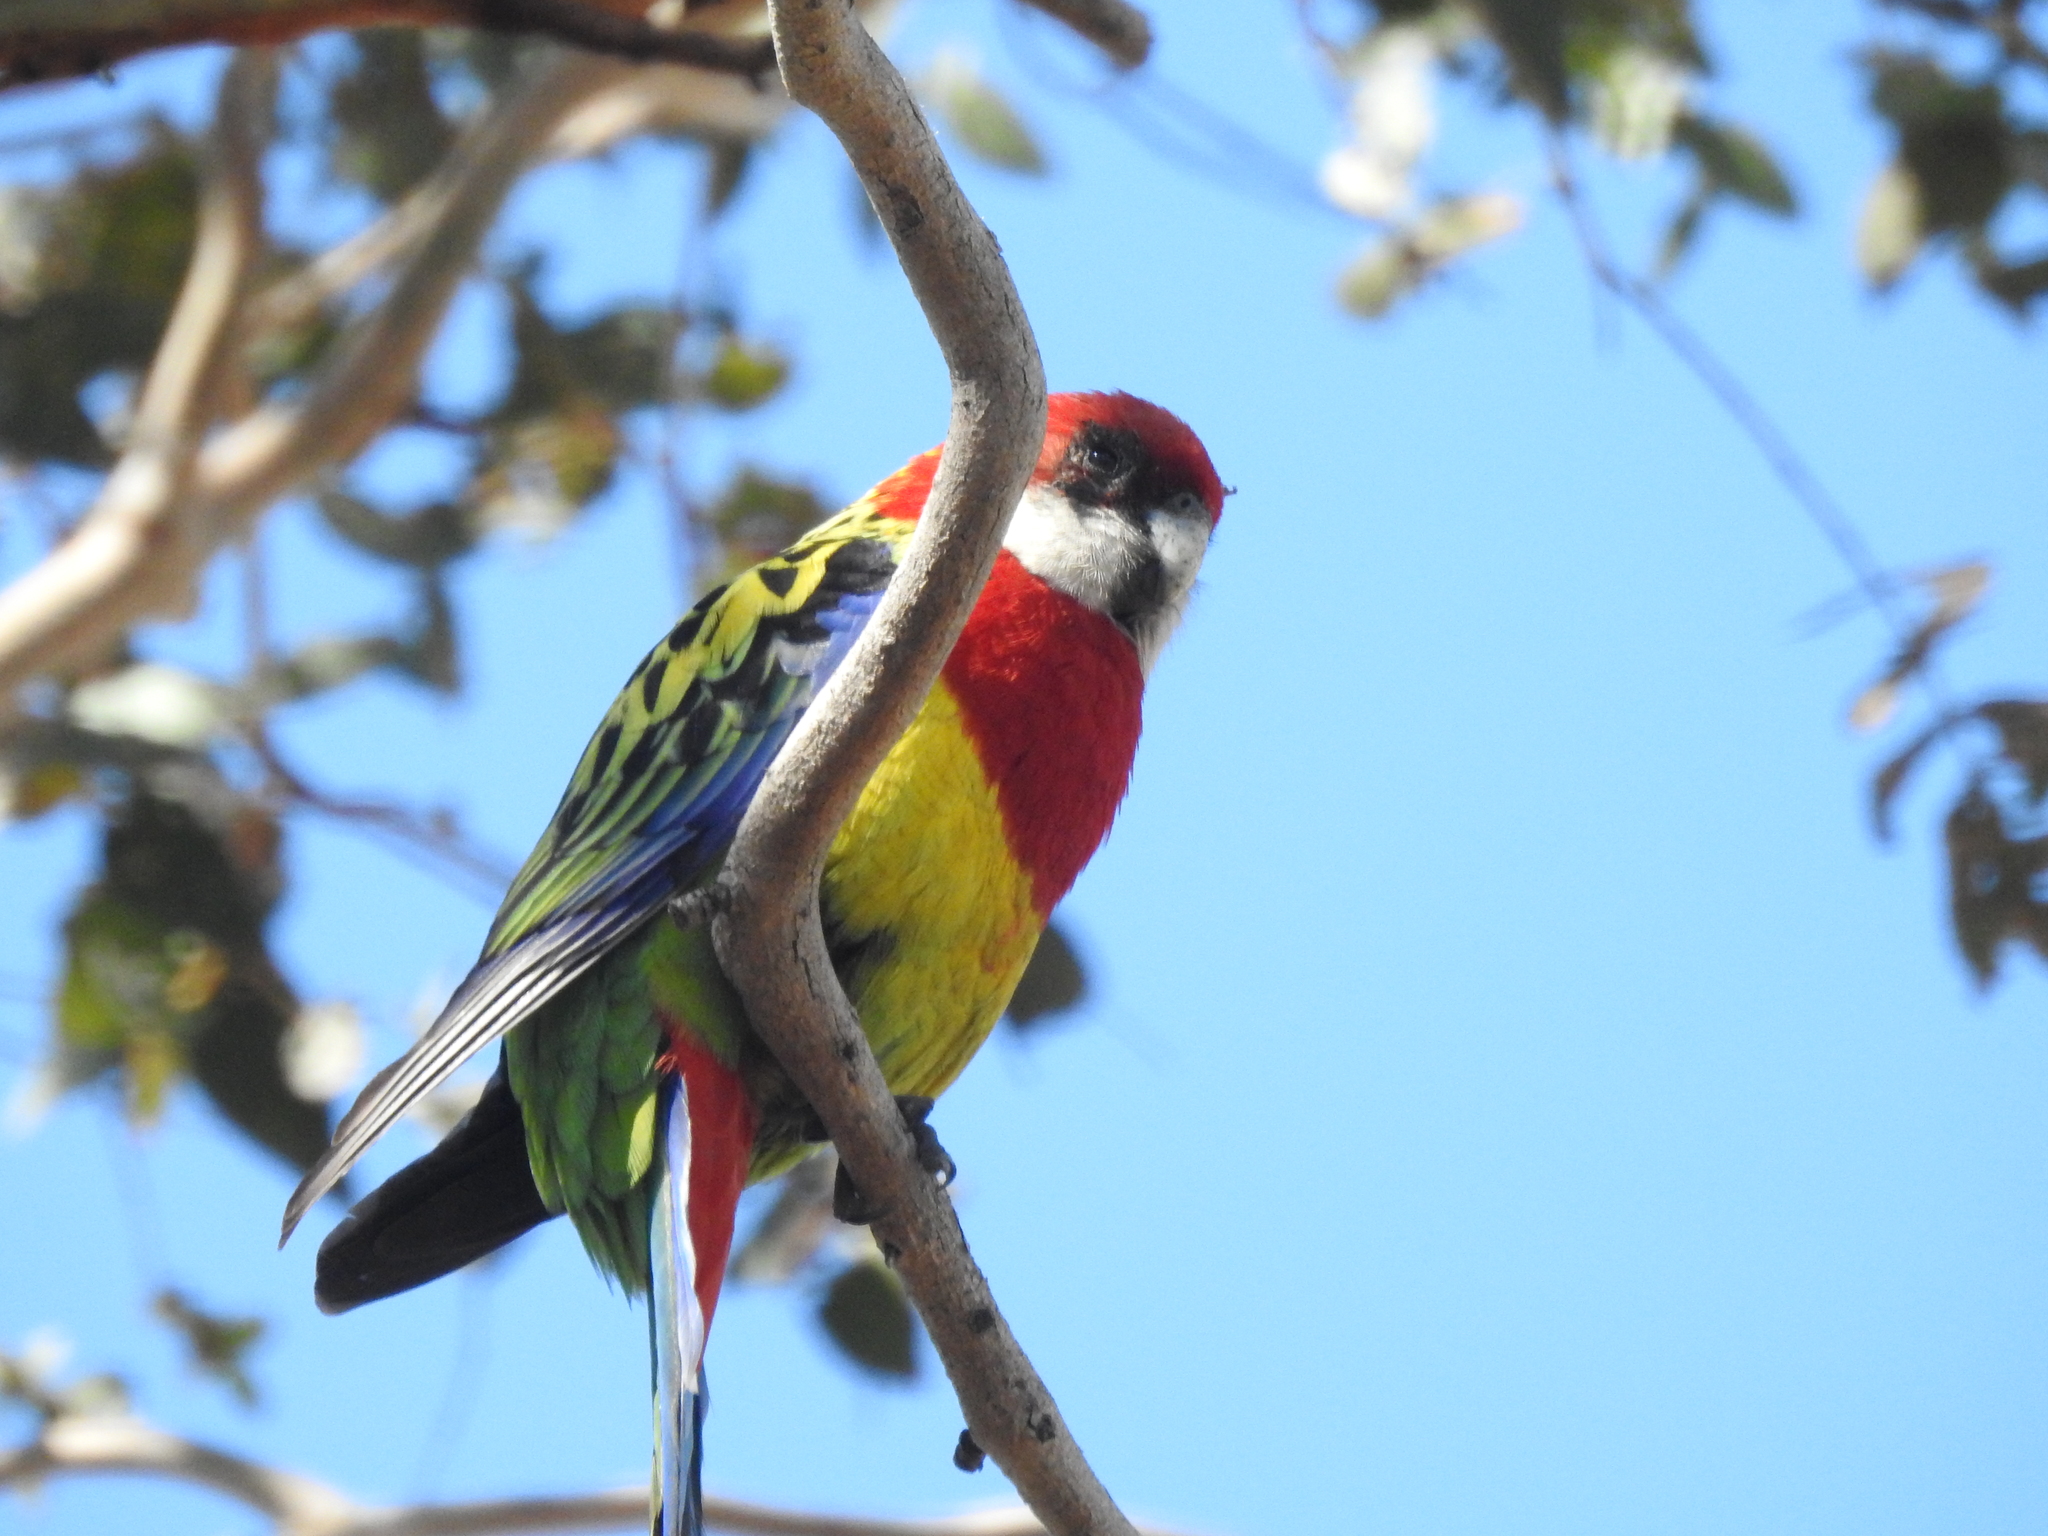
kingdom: Animalia
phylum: Chordata
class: Aves
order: Psittaciformes
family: Psittacidae
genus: Platycercus
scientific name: Platycercus eximius
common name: Eastern rosella
